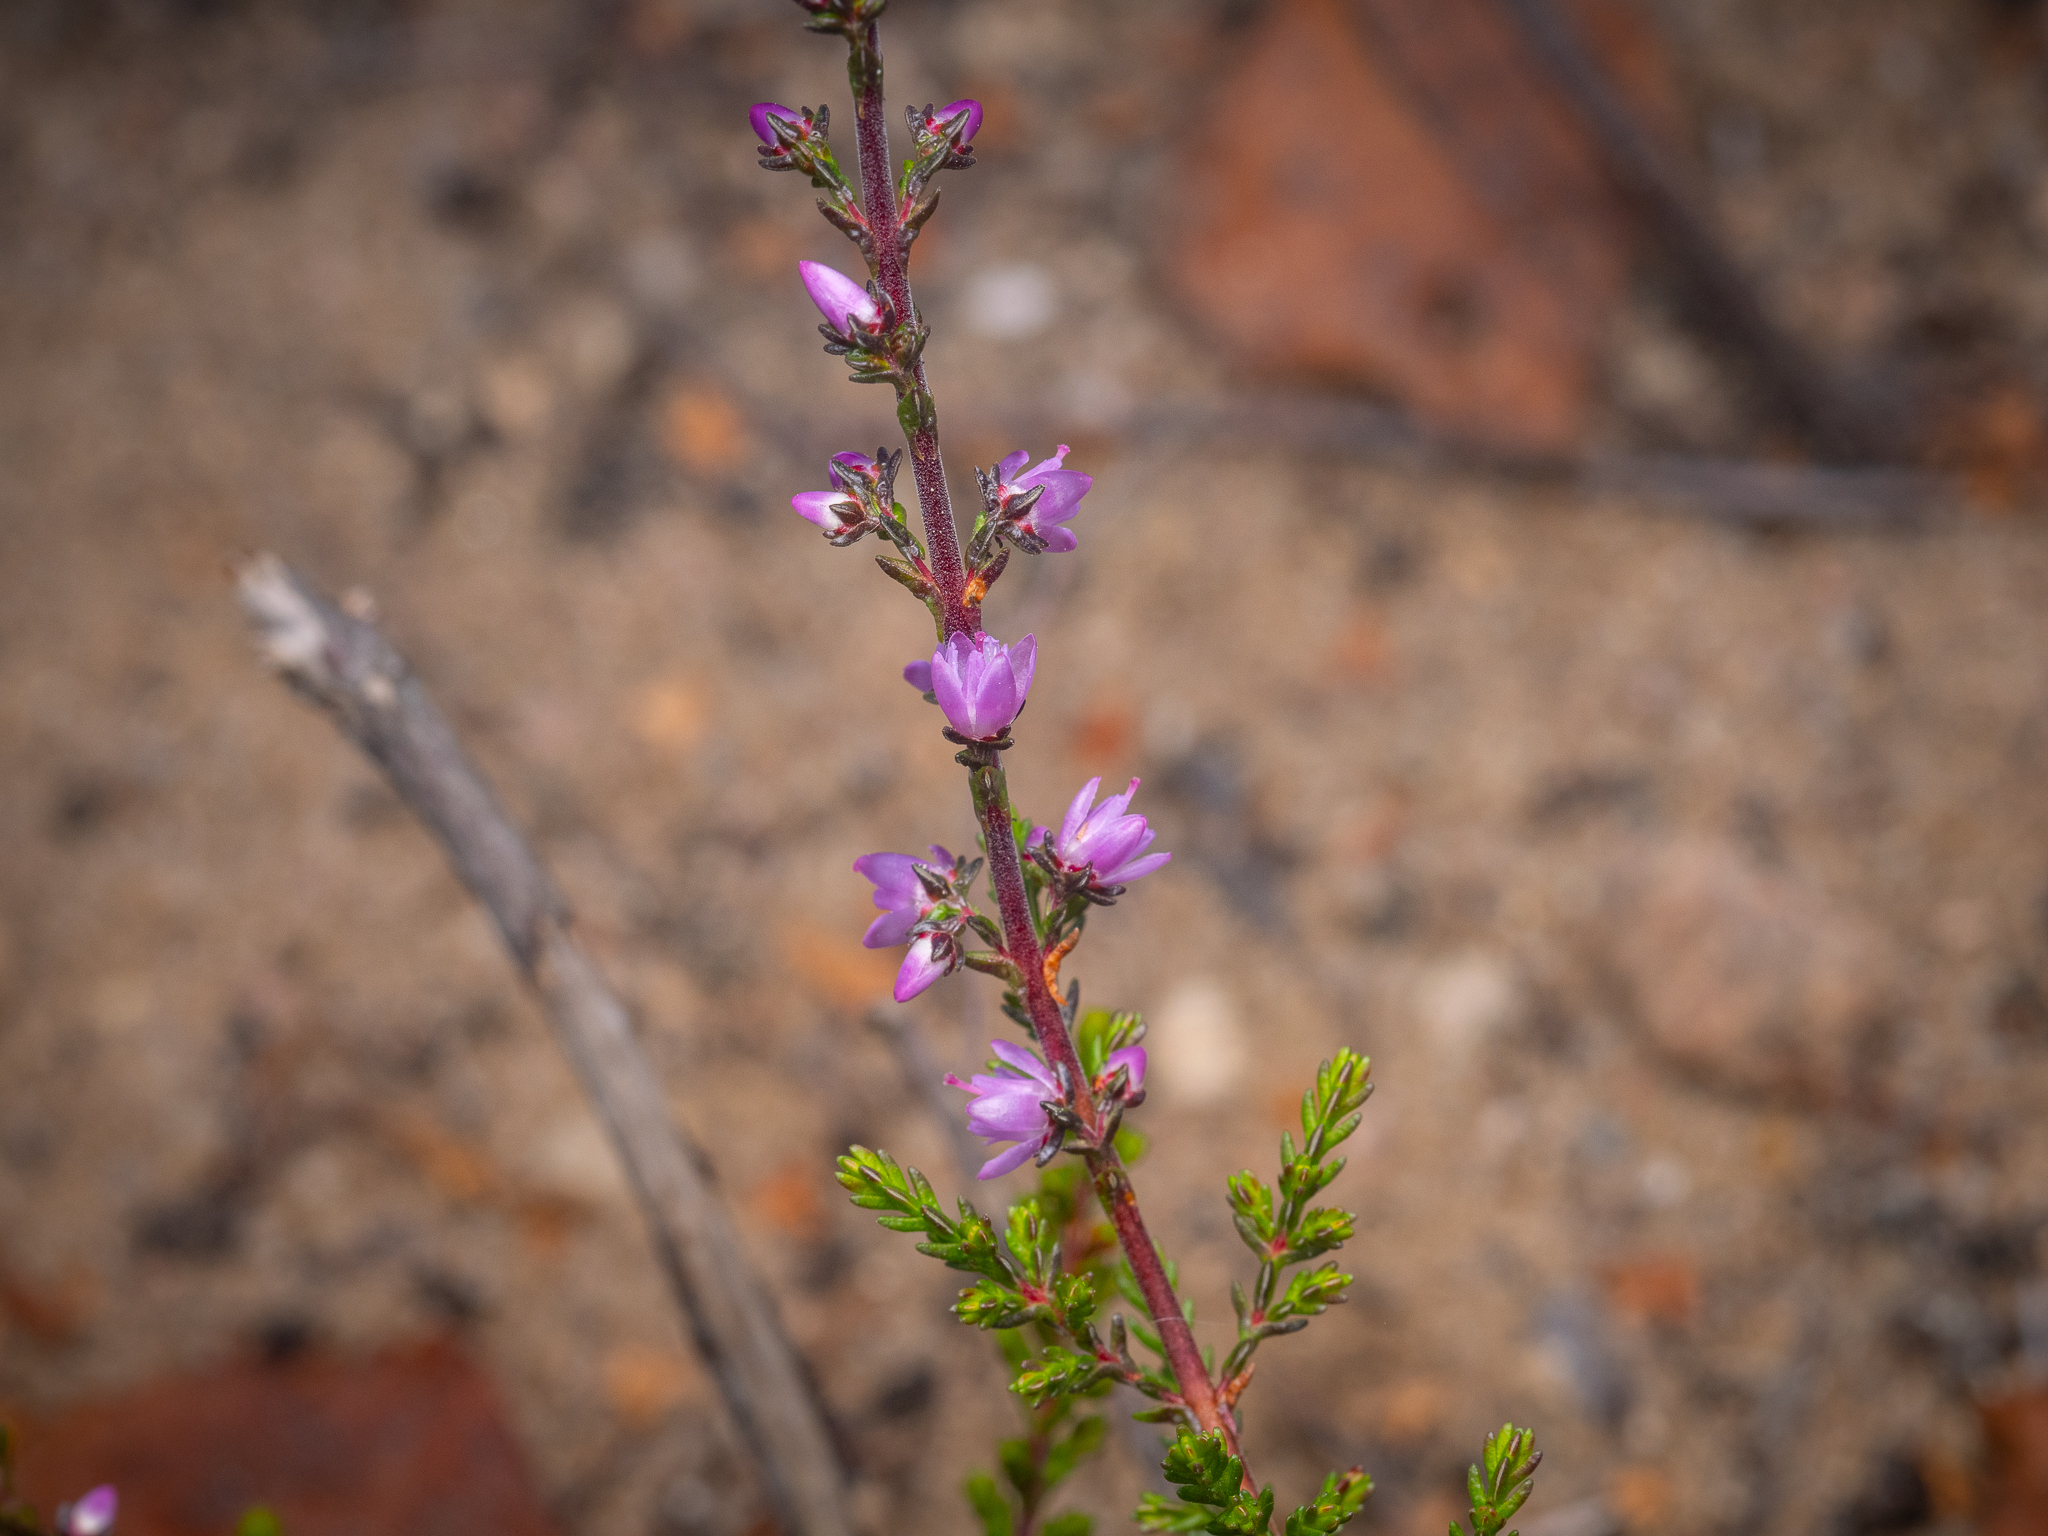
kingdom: Plantae
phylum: Tracheophyta
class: Magnoliopsida
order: Ericales
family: Ericaceae
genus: Calluna
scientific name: Calluna vulgaris
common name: Heather
